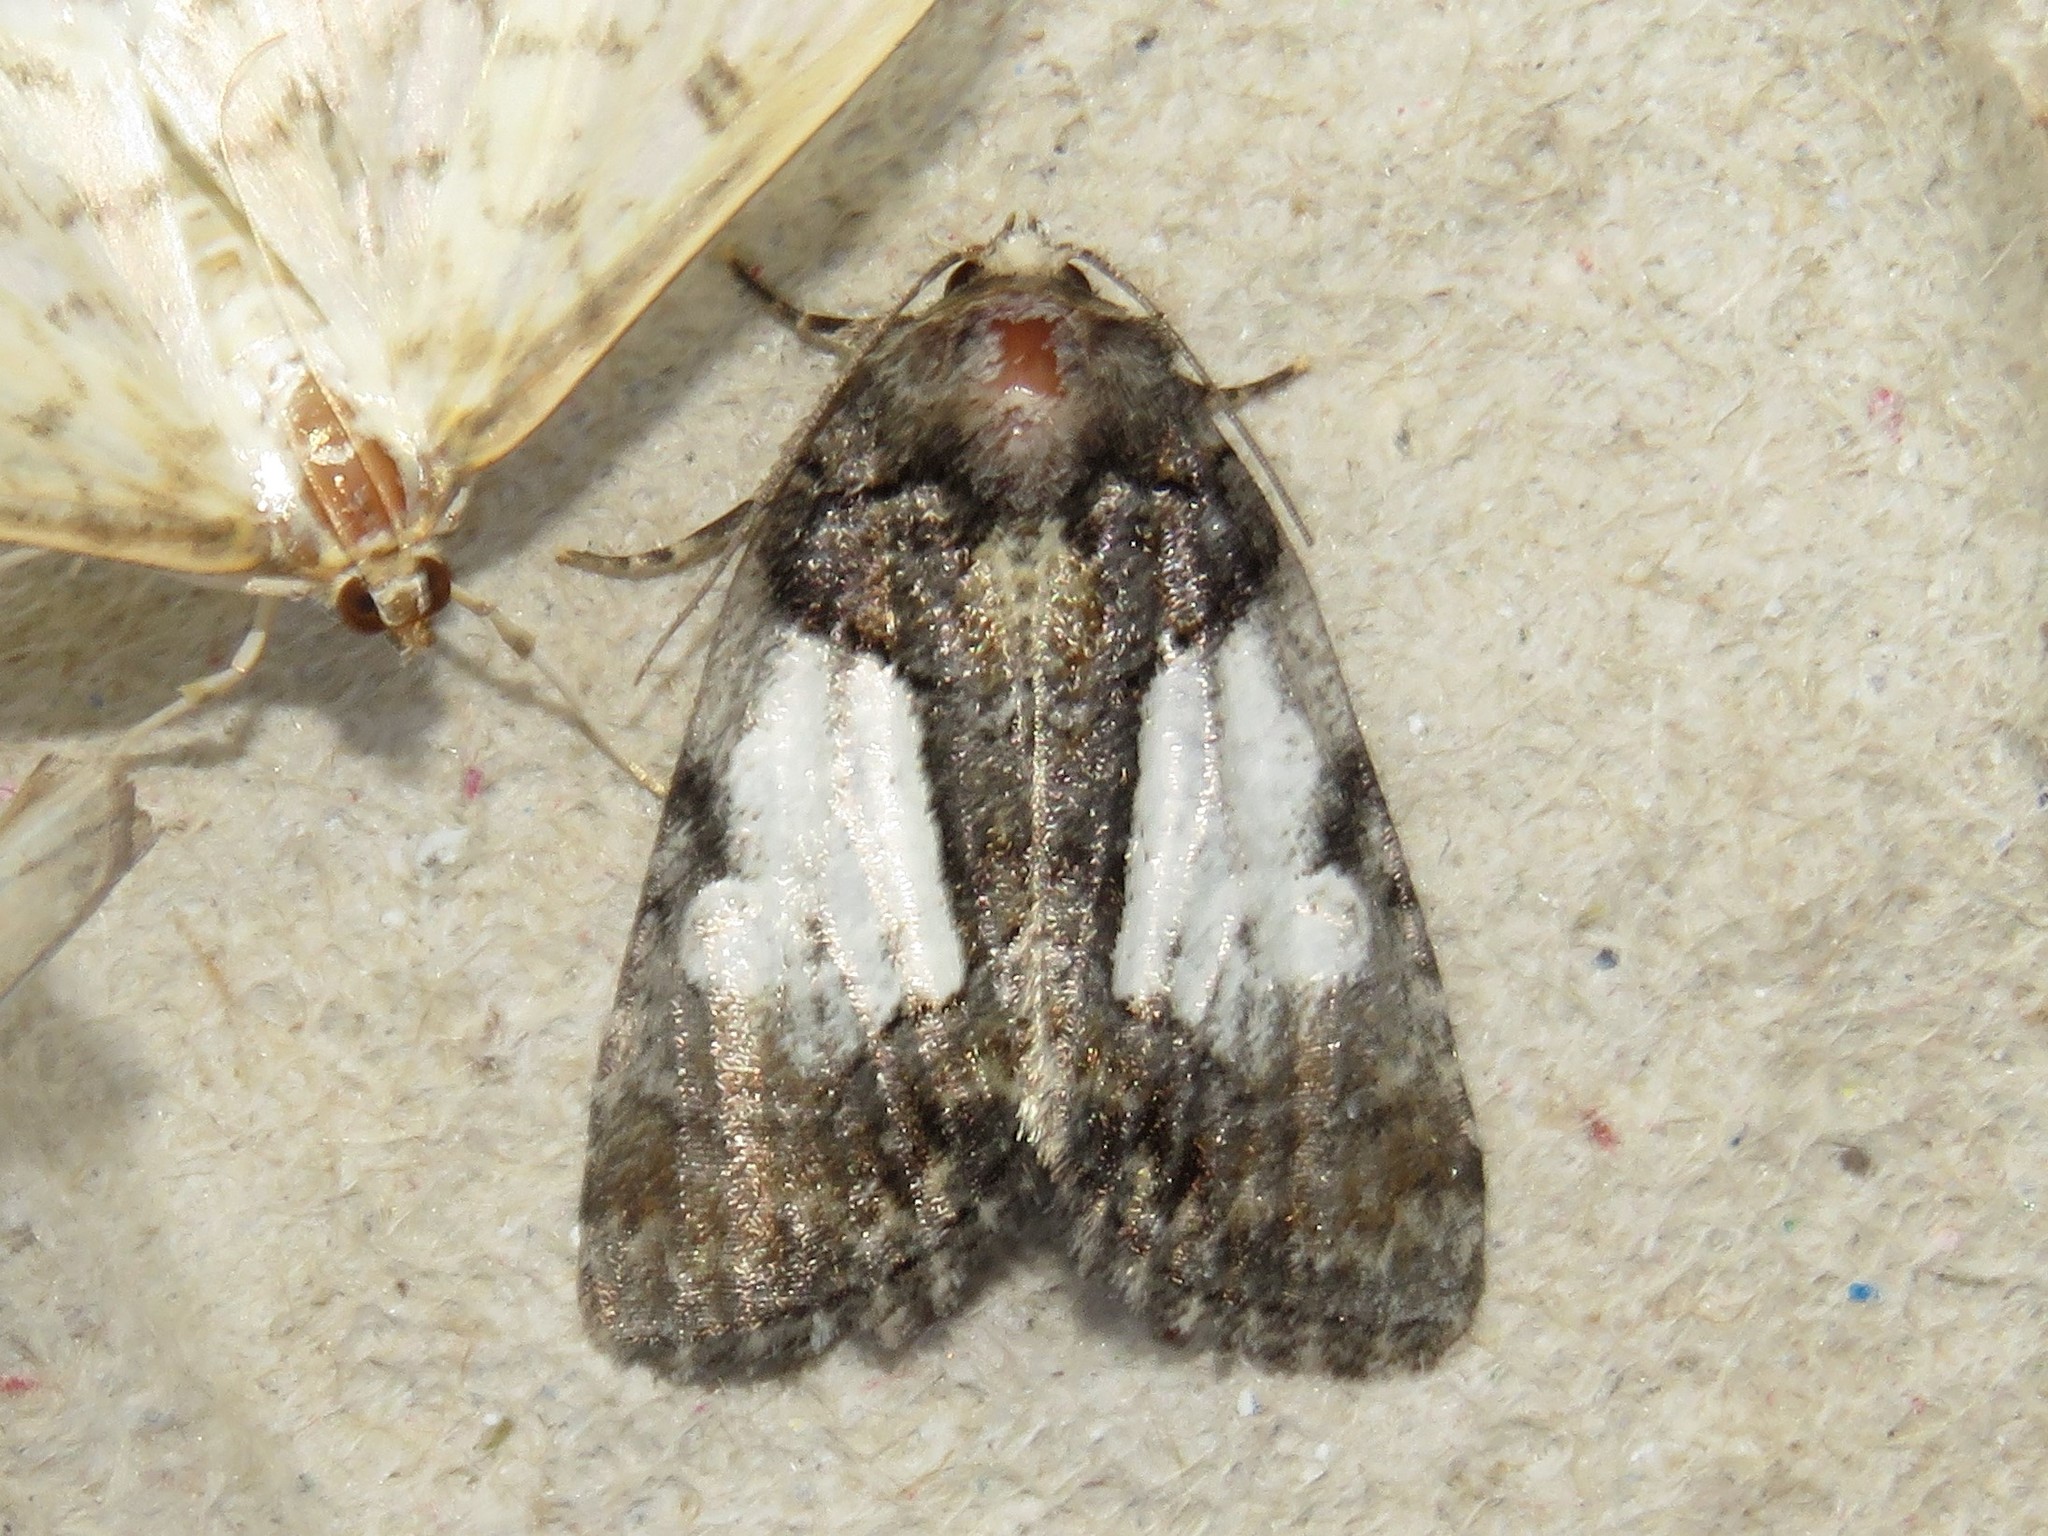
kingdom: Animalia
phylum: Arthropoda
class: Insecta
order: Lepidoptera
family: Noctuidae
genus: Chytonix
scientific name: Chytonix palliatricula
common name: Cloaked marvel
